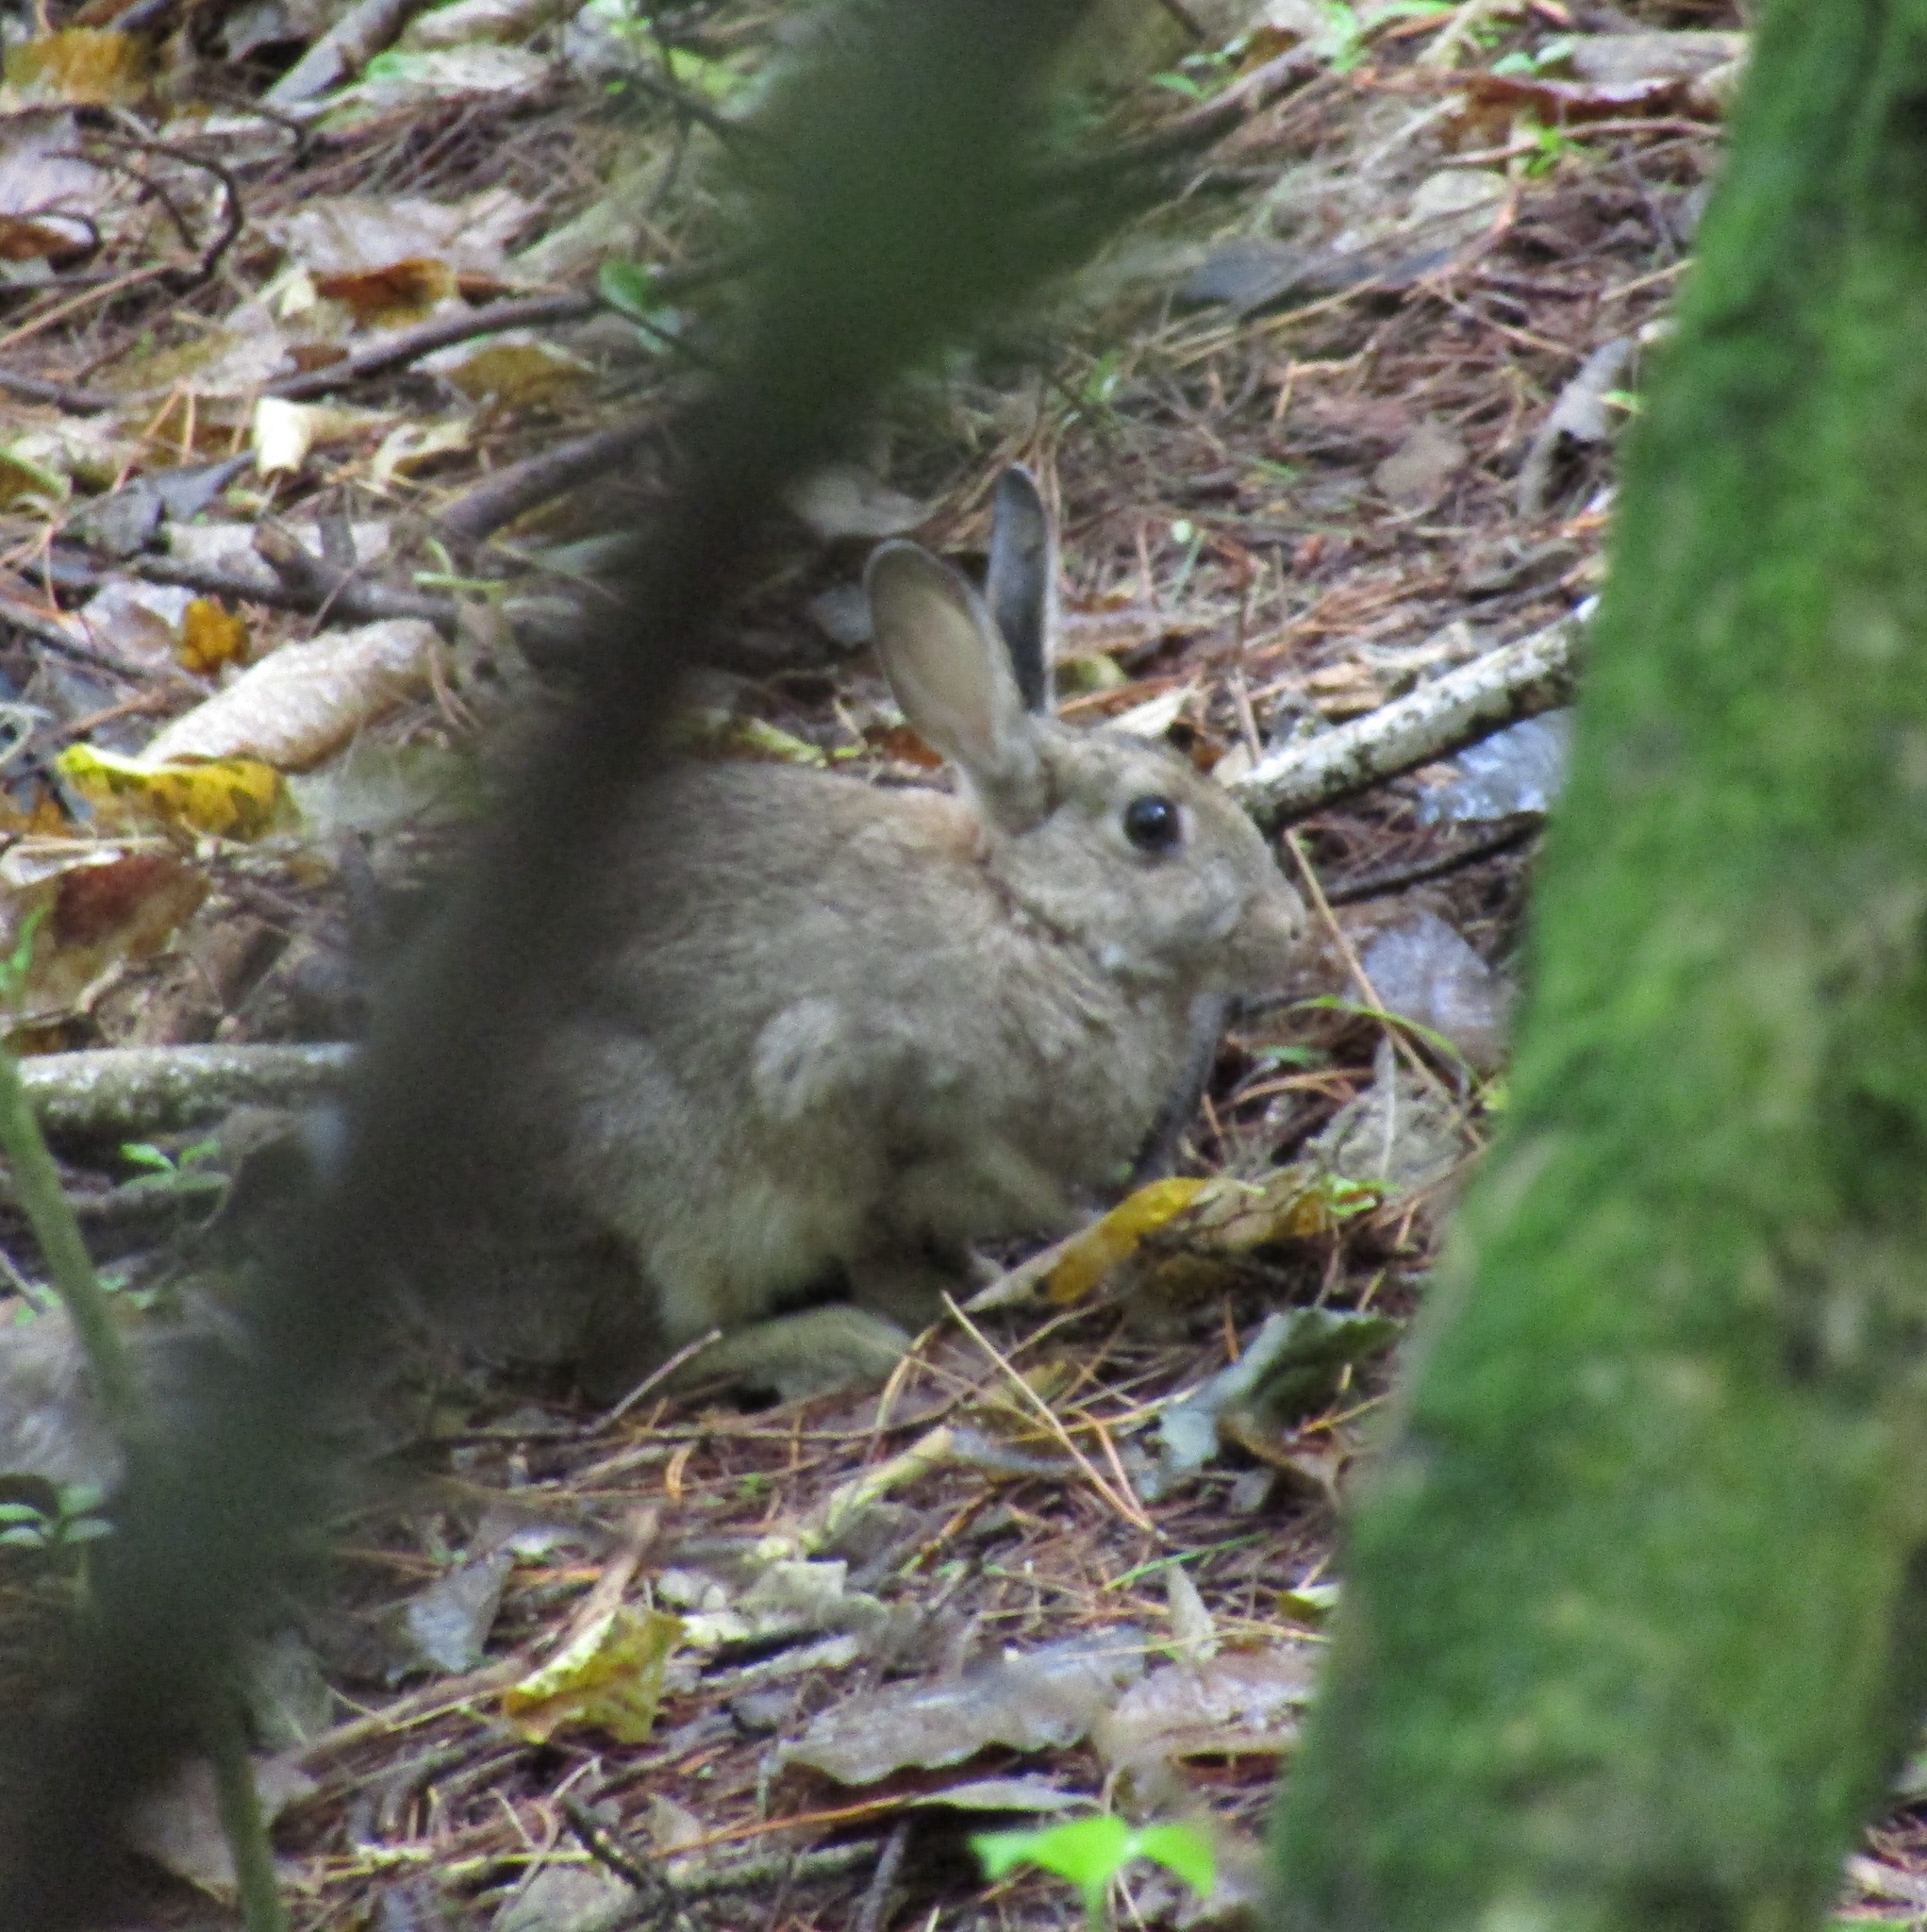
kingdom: Animalia
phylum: Chordata
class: Mammalia
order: Lagomorpha
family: Leporidae
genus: Oryctolagus
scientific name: Oryctolagus cuniculus
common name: European rabbit
